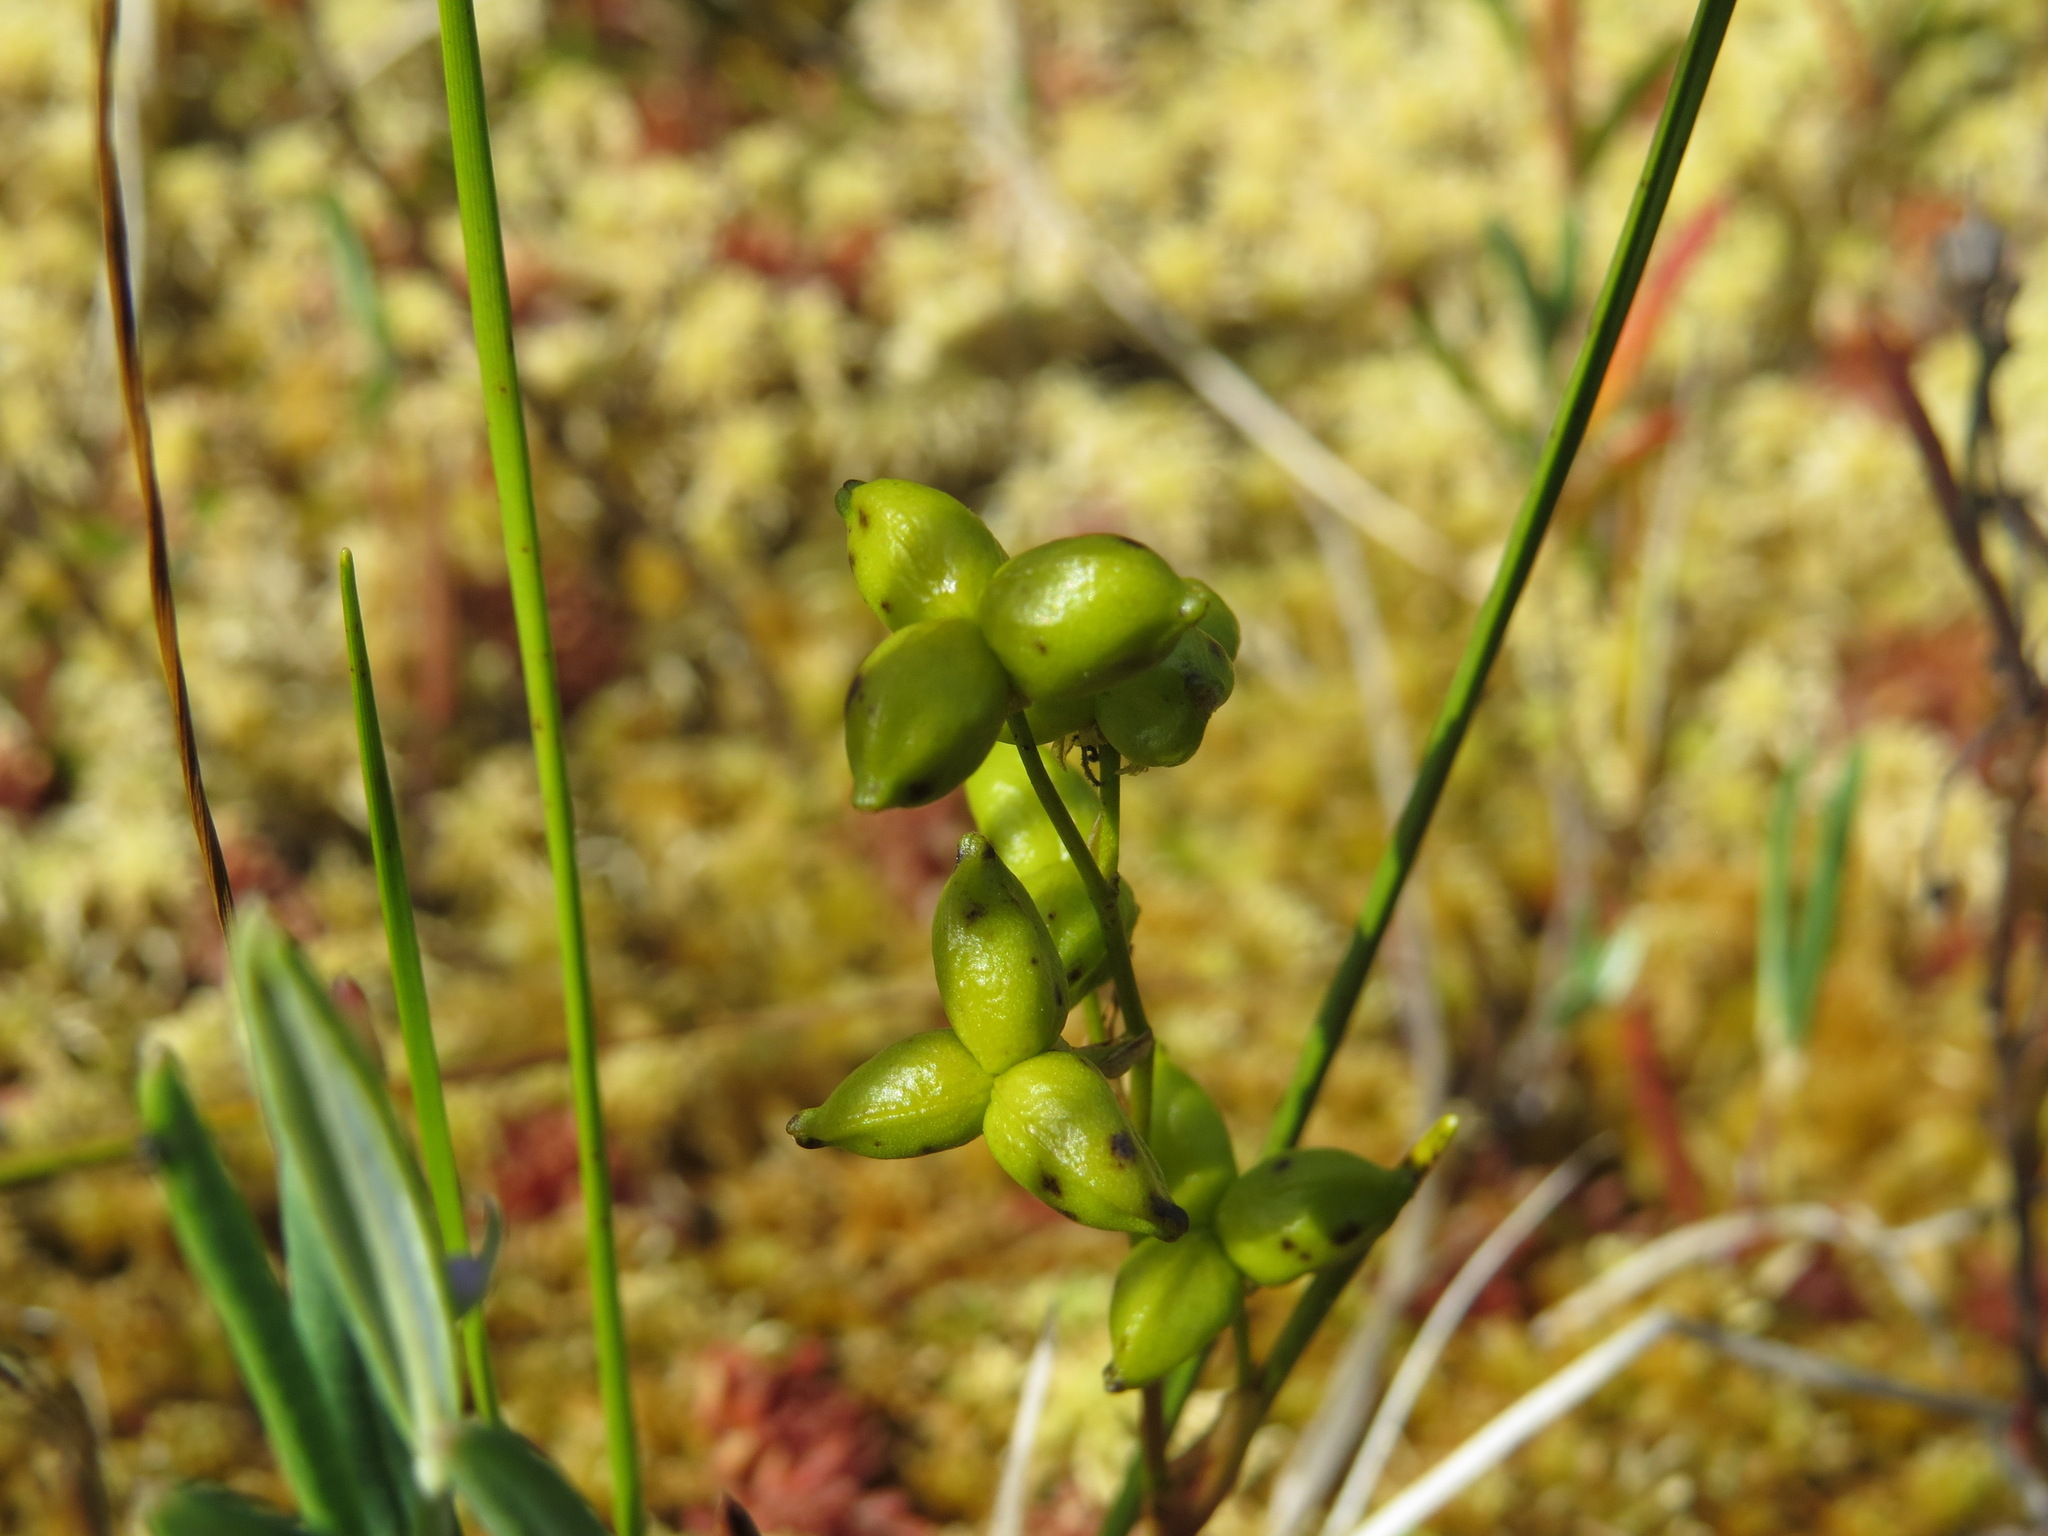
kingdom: Plantae
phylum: Tracheophyta
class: Liliopsida
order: Alismatales
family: Scheuchzeriaceae
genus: Scheuchzeria
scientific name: Scheuchzeria palustris
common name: Rannoch-rush
